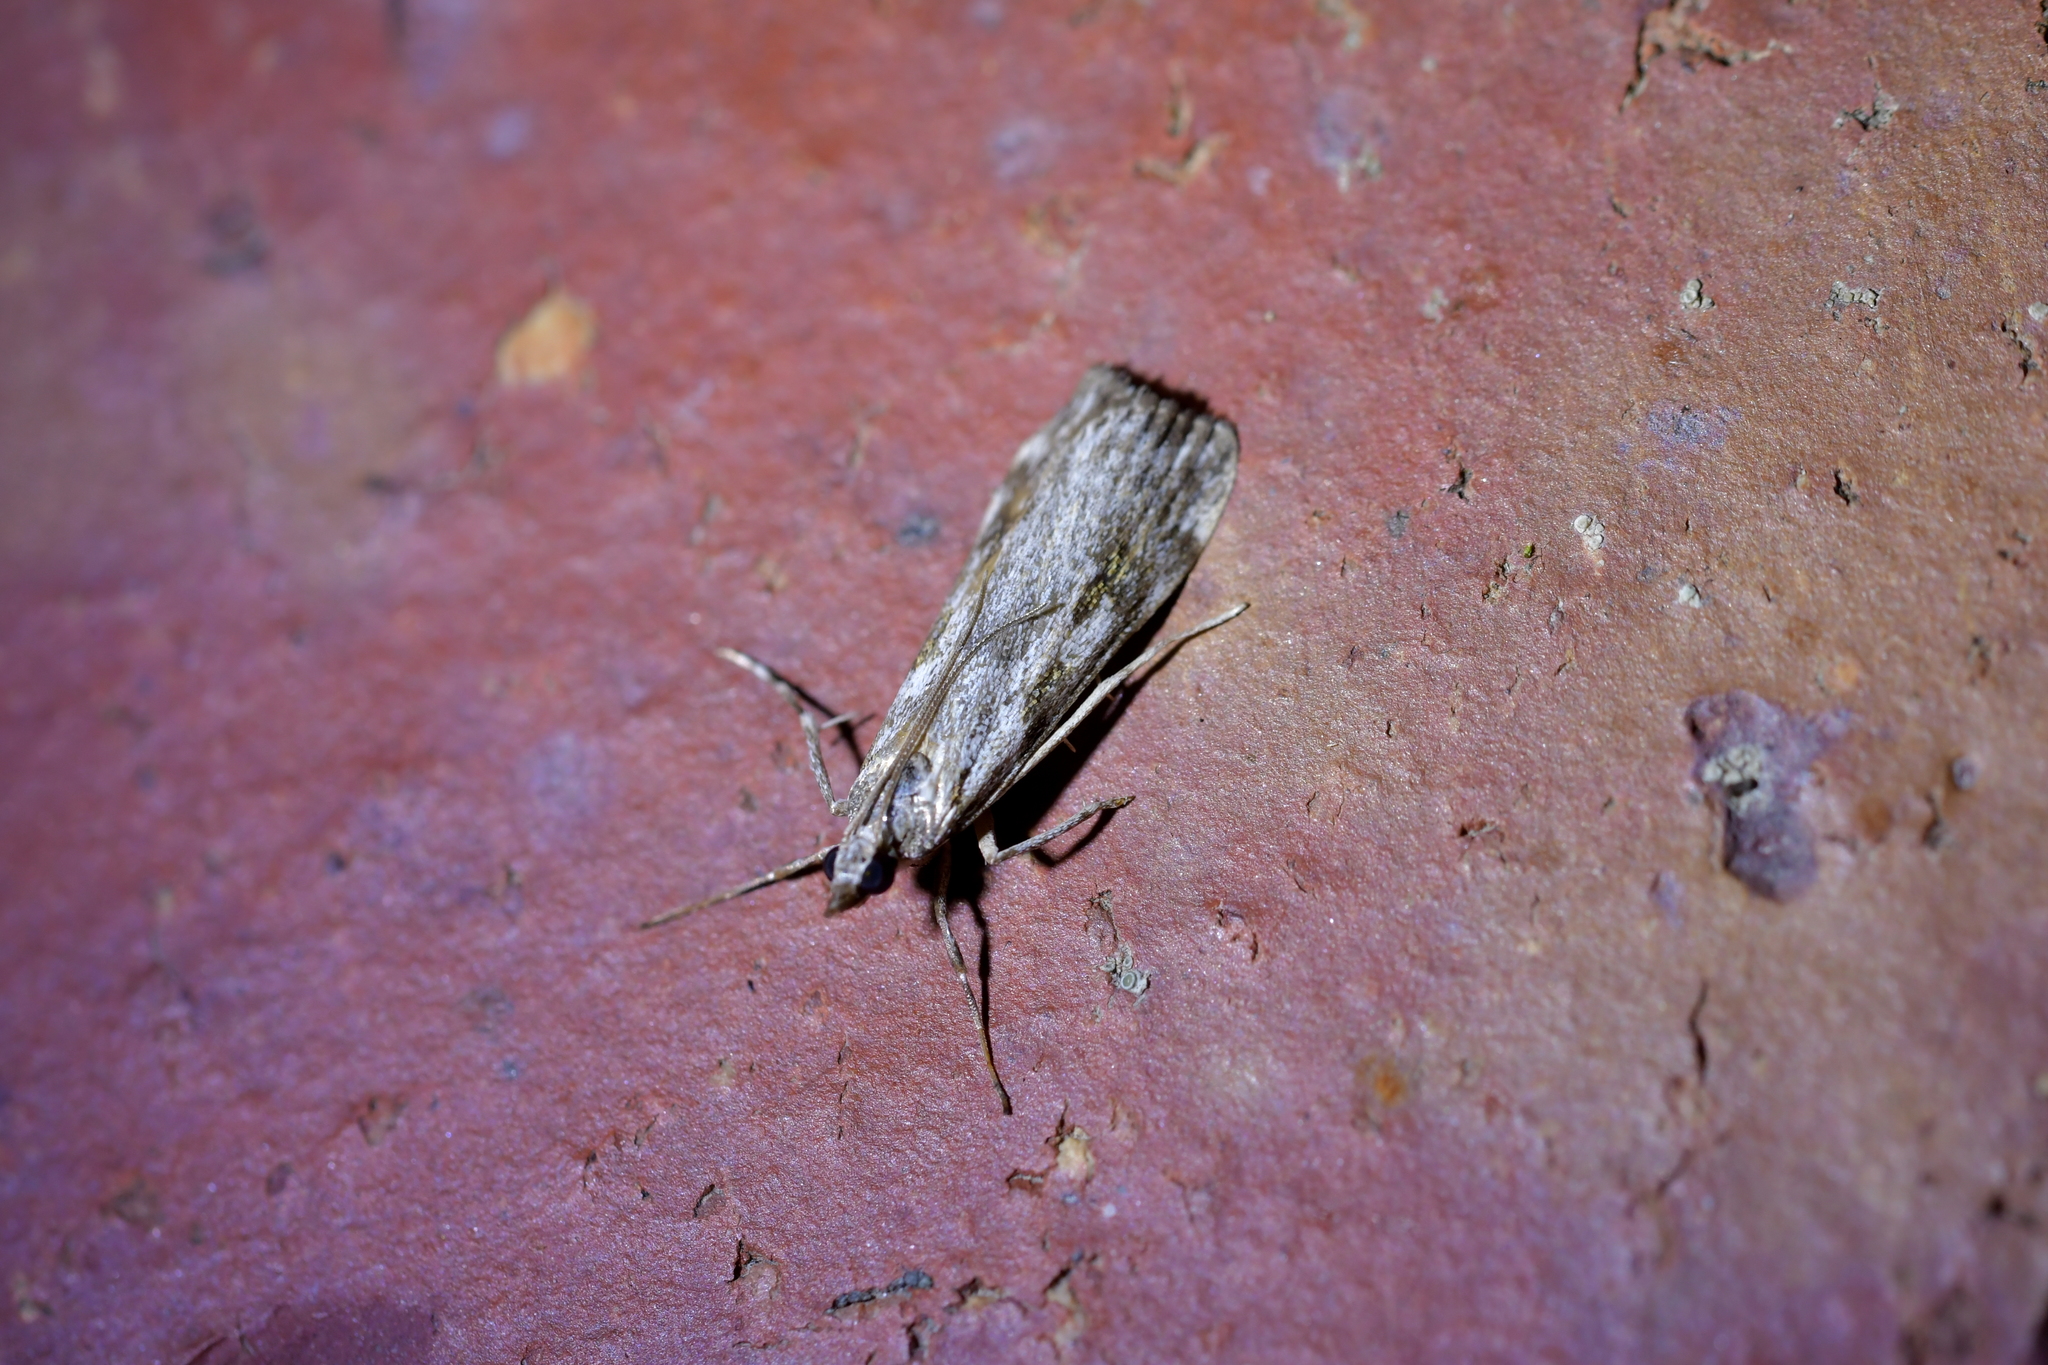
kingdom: Animalia
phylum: Arthropoda
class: Insecta
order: Lepidoptera
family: Crambidae
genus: Scoparia
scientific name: Scoparia halopis
